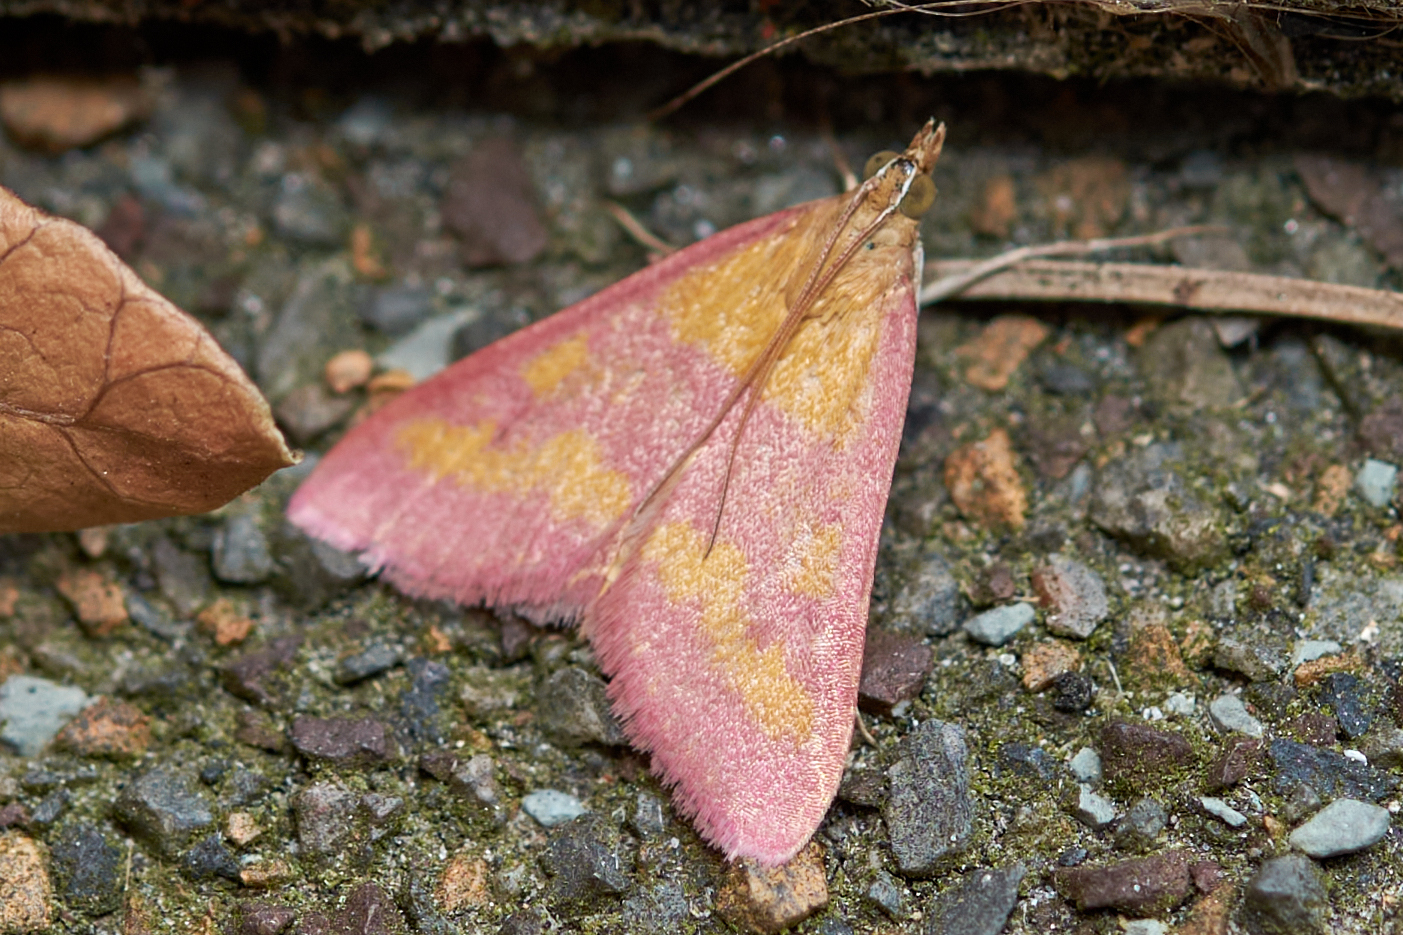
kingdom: Animalia
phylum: Arthropoda
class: Insecta
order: Lepidoptera
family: Crambidae
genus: Pyrausta
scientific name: Pyrausta laticlavia
